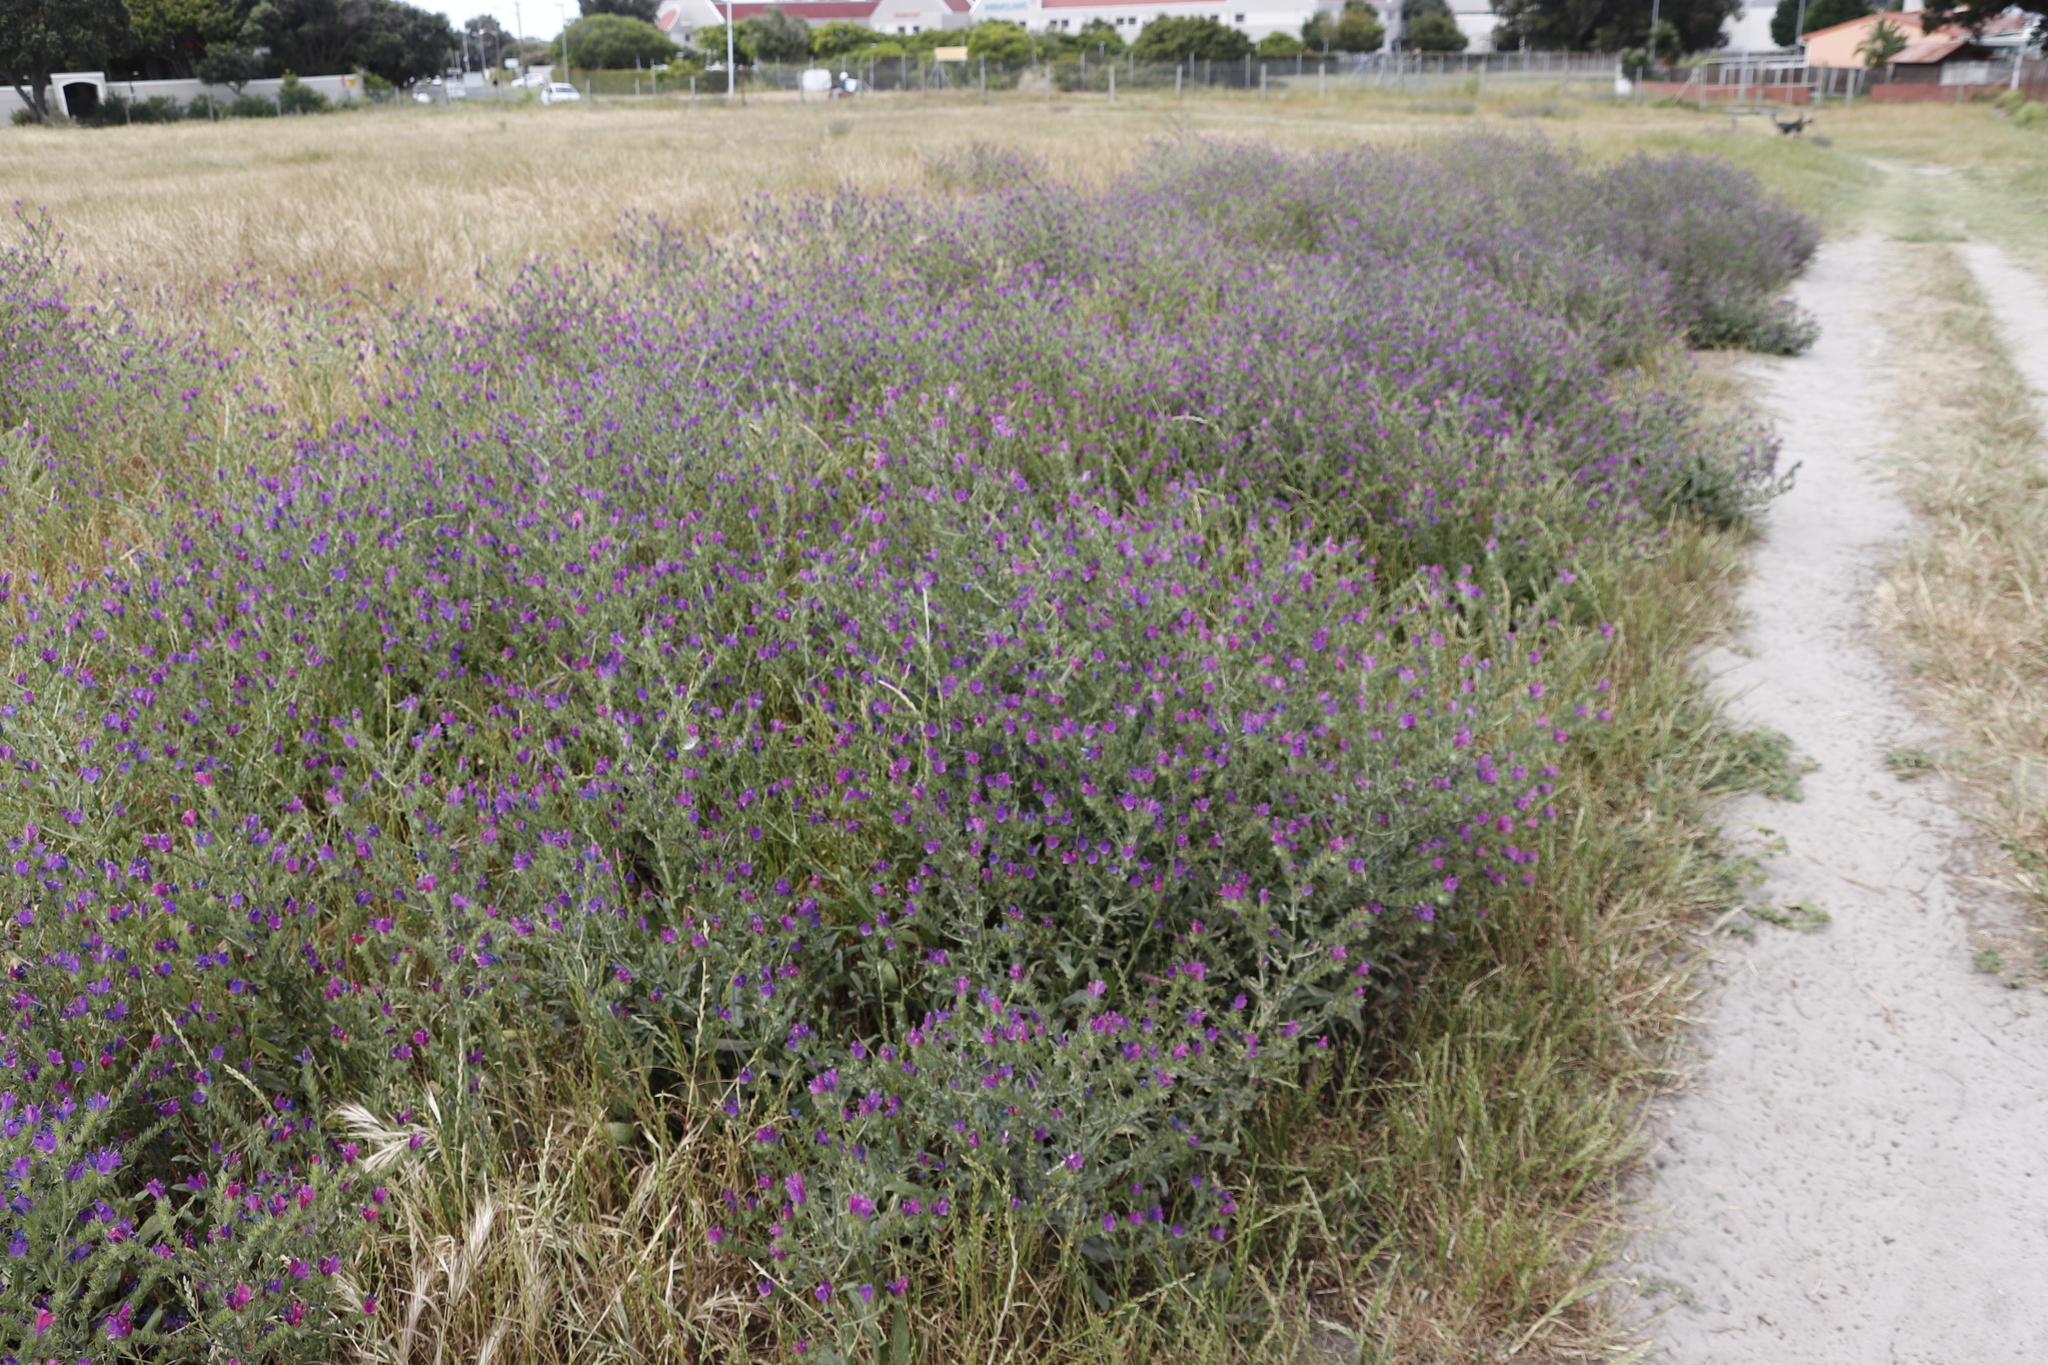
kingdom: Plantae
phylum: Tracheophyta
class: Magnoliopsida
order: Boraginales
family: Boraginaceae
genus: Echium
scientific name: Echium plantagineum
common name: Purple viper's-bugloss
